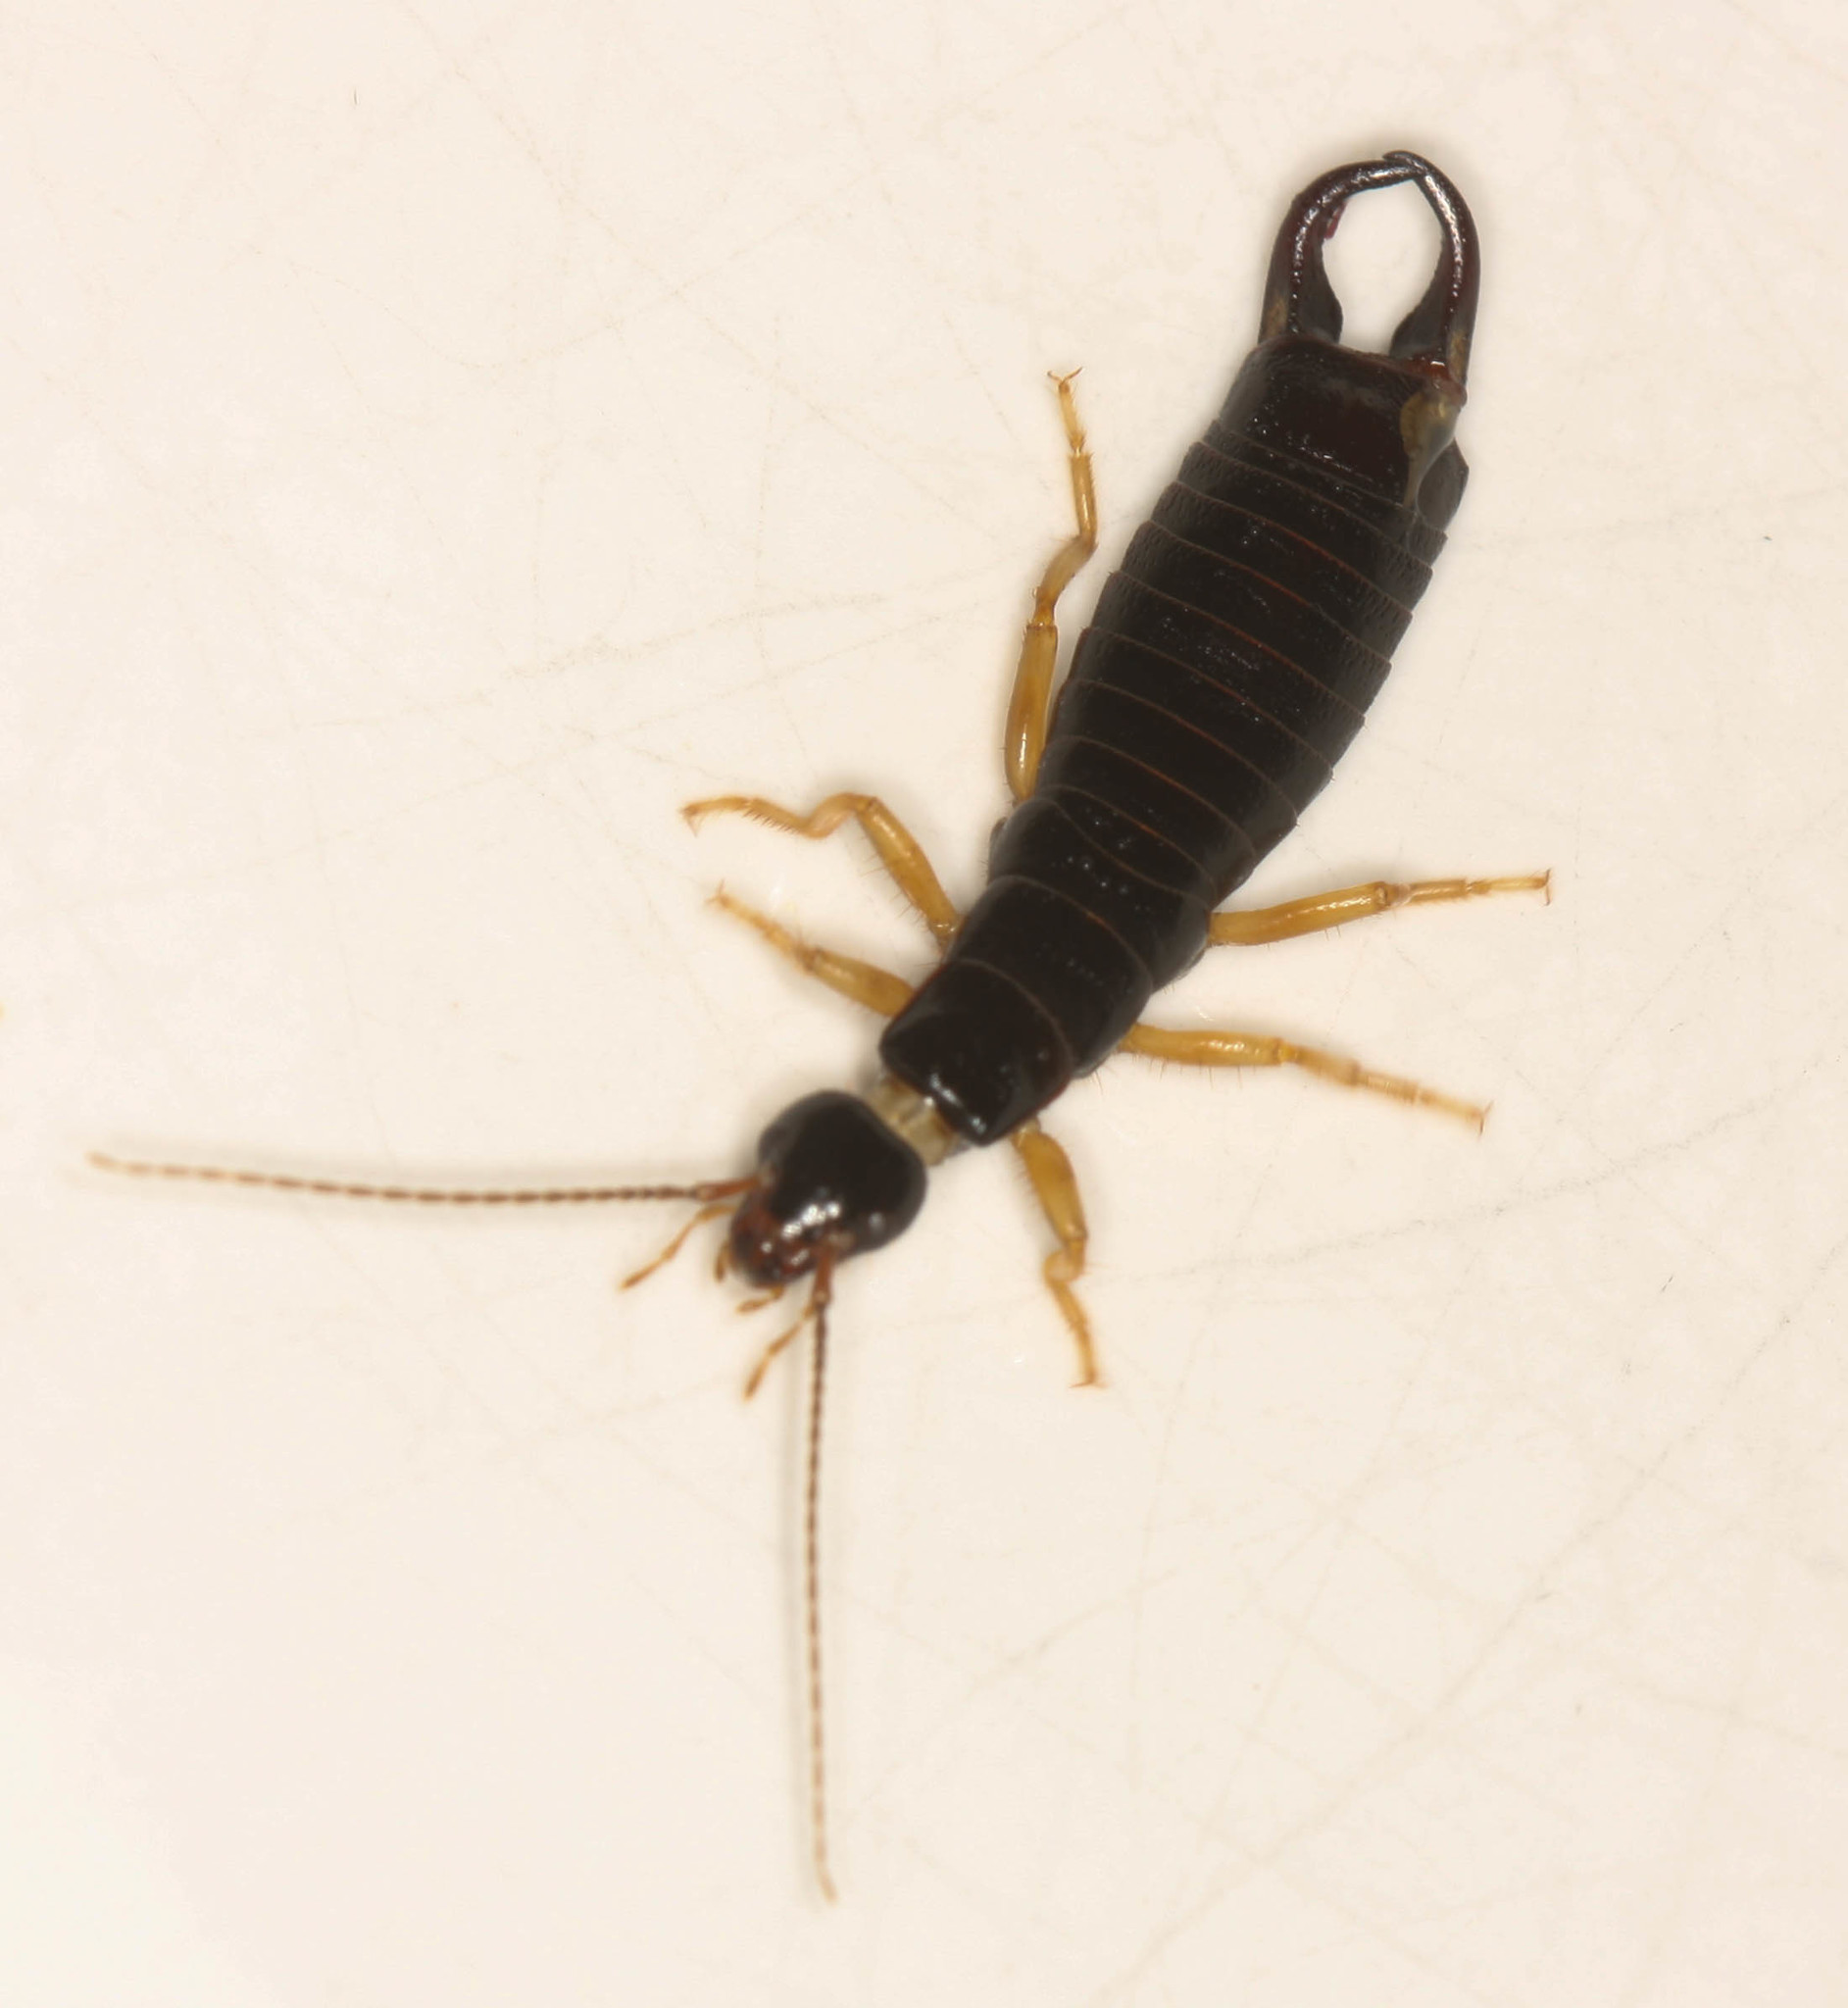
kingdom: Animalia
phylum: Arthropoda
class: Insecta
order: Dermaptera
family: Anisolabididae
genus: Anisolabis
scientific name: Anisolabis maritima
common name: Maritime earwig
